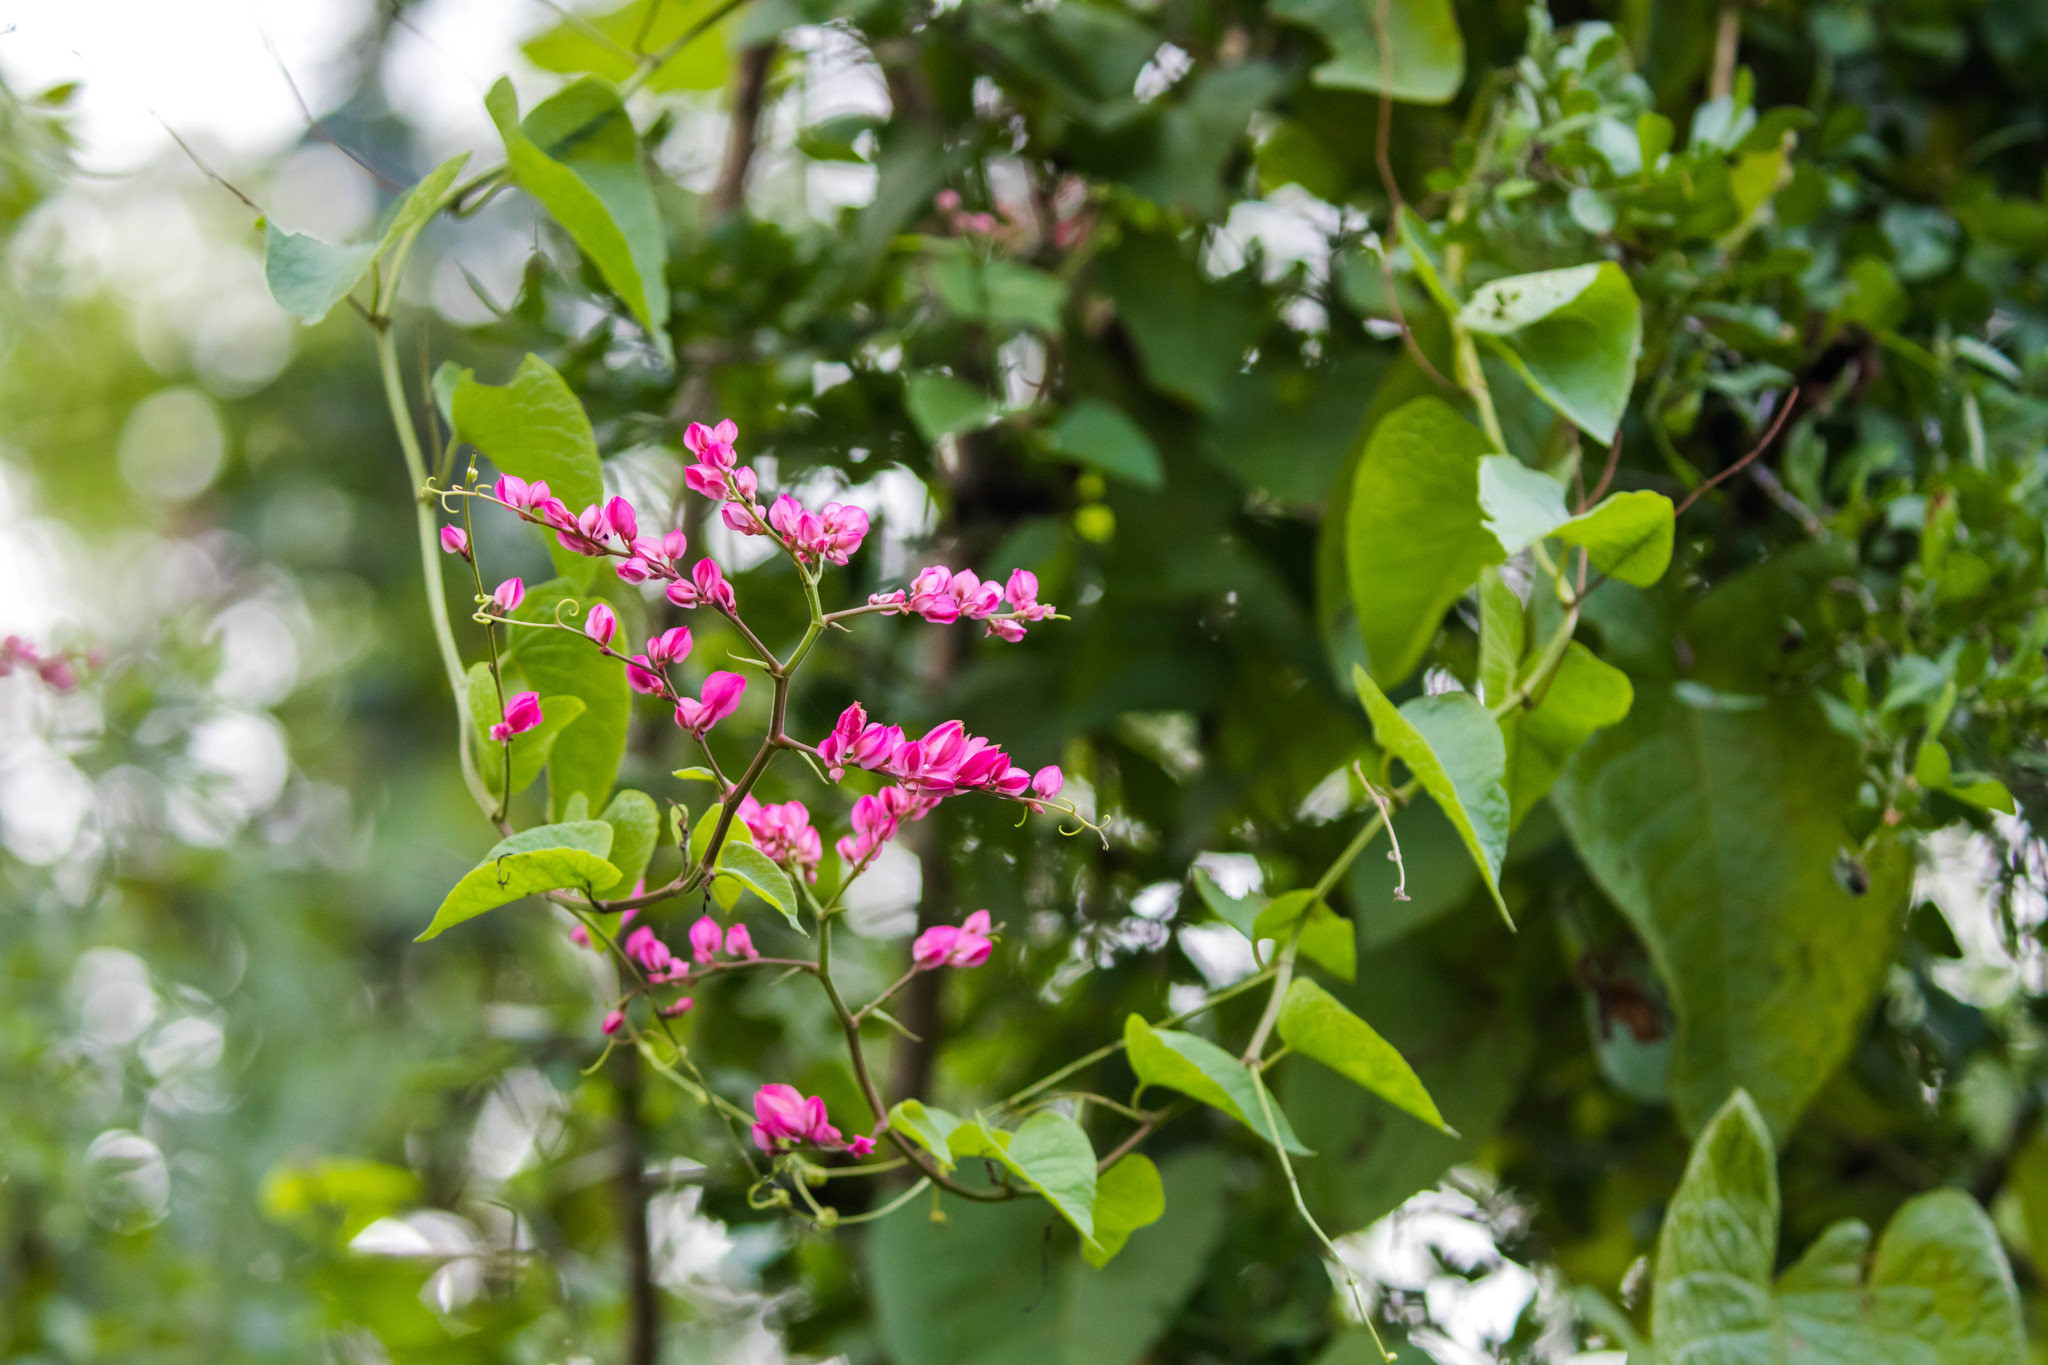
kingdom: Plantae
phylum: Tracheophyta
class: Magnoliopsida
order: Caryophyllales
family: Polygonaceae
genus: Antigonon
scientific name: Antigonon leptopus
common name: Coral vine
